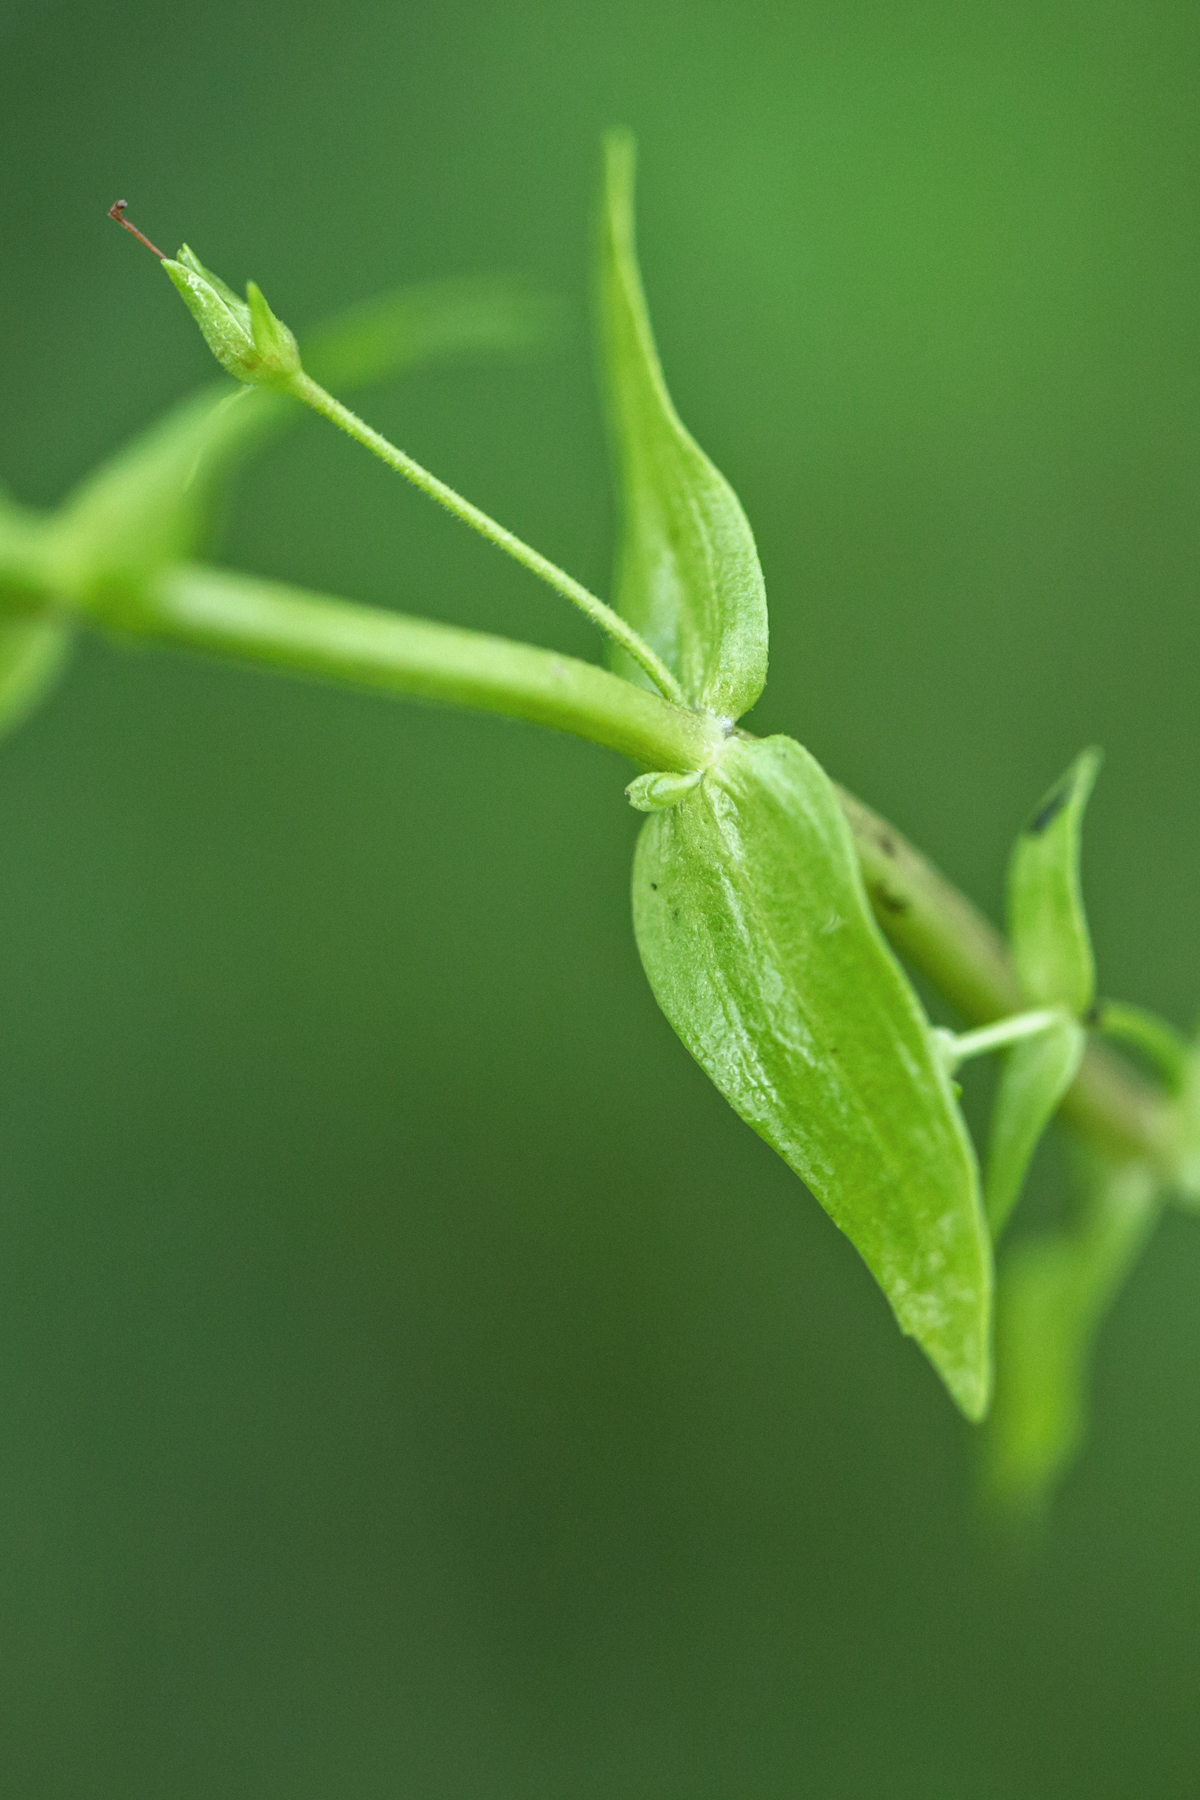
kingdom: Plantae
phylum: Tracheophyta
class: Magnoliopsida
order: Lamiales
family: Plantaginaceae
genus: Gratiola
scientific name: Gratiola lutea
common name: Golden hedge-hyssop
